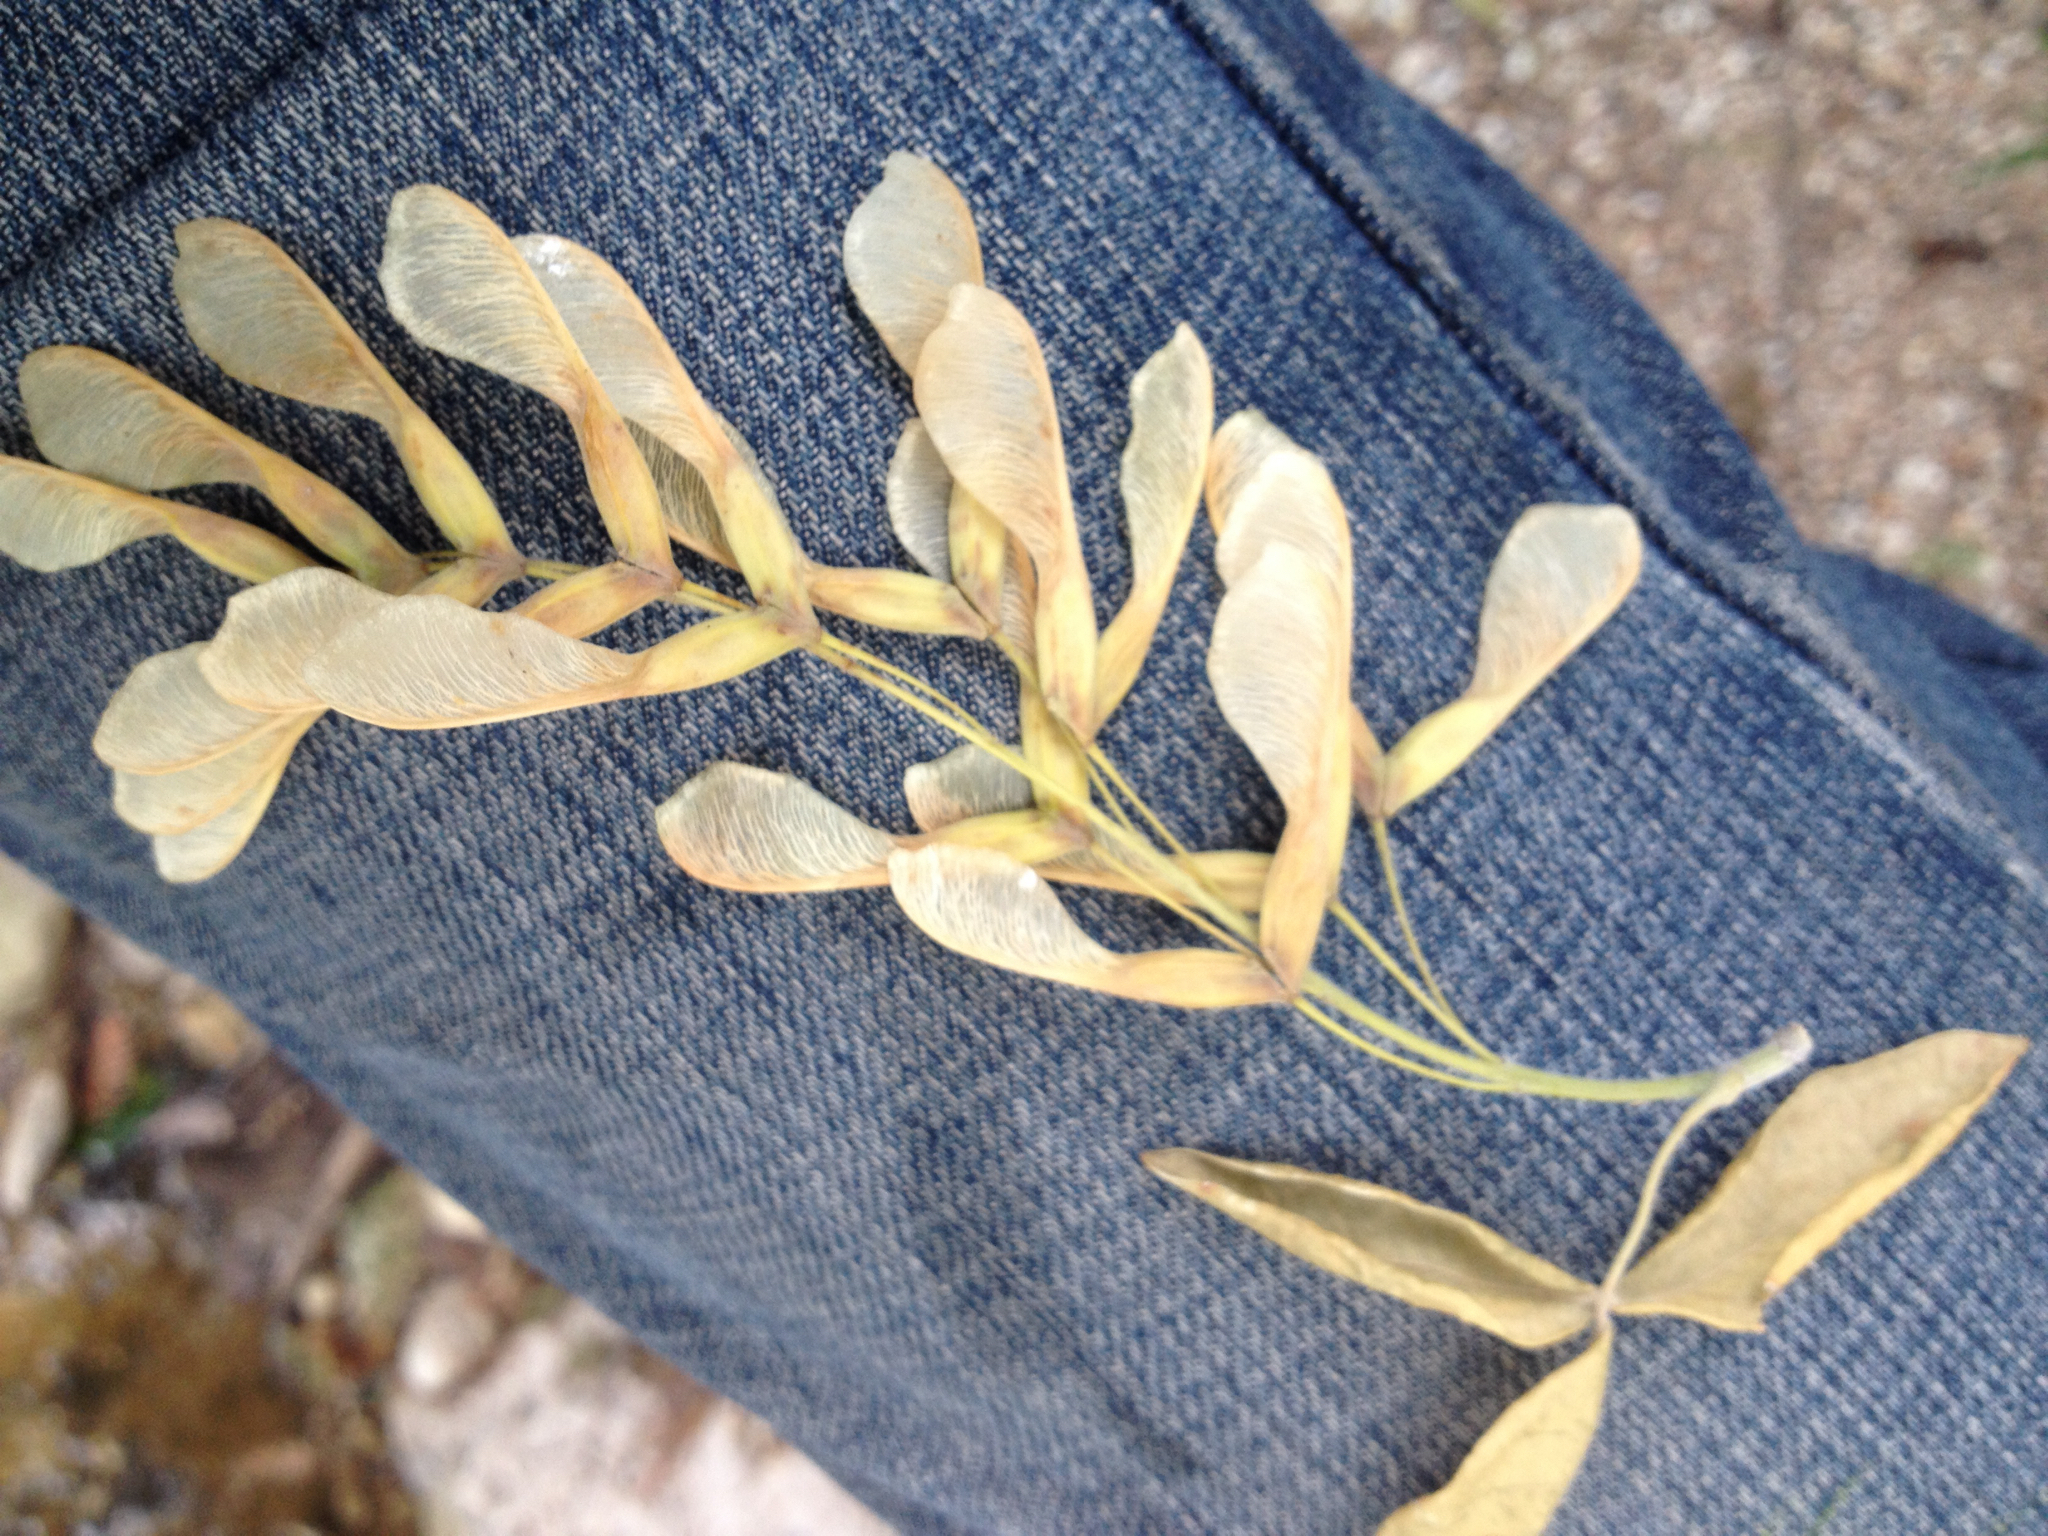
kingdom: Plantae
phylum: Tracheophyta
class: Magnoliopsida
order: Sapindales
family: Sapindaceae
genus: Acer
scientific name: Acer negundo
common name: Ashleaf maple
